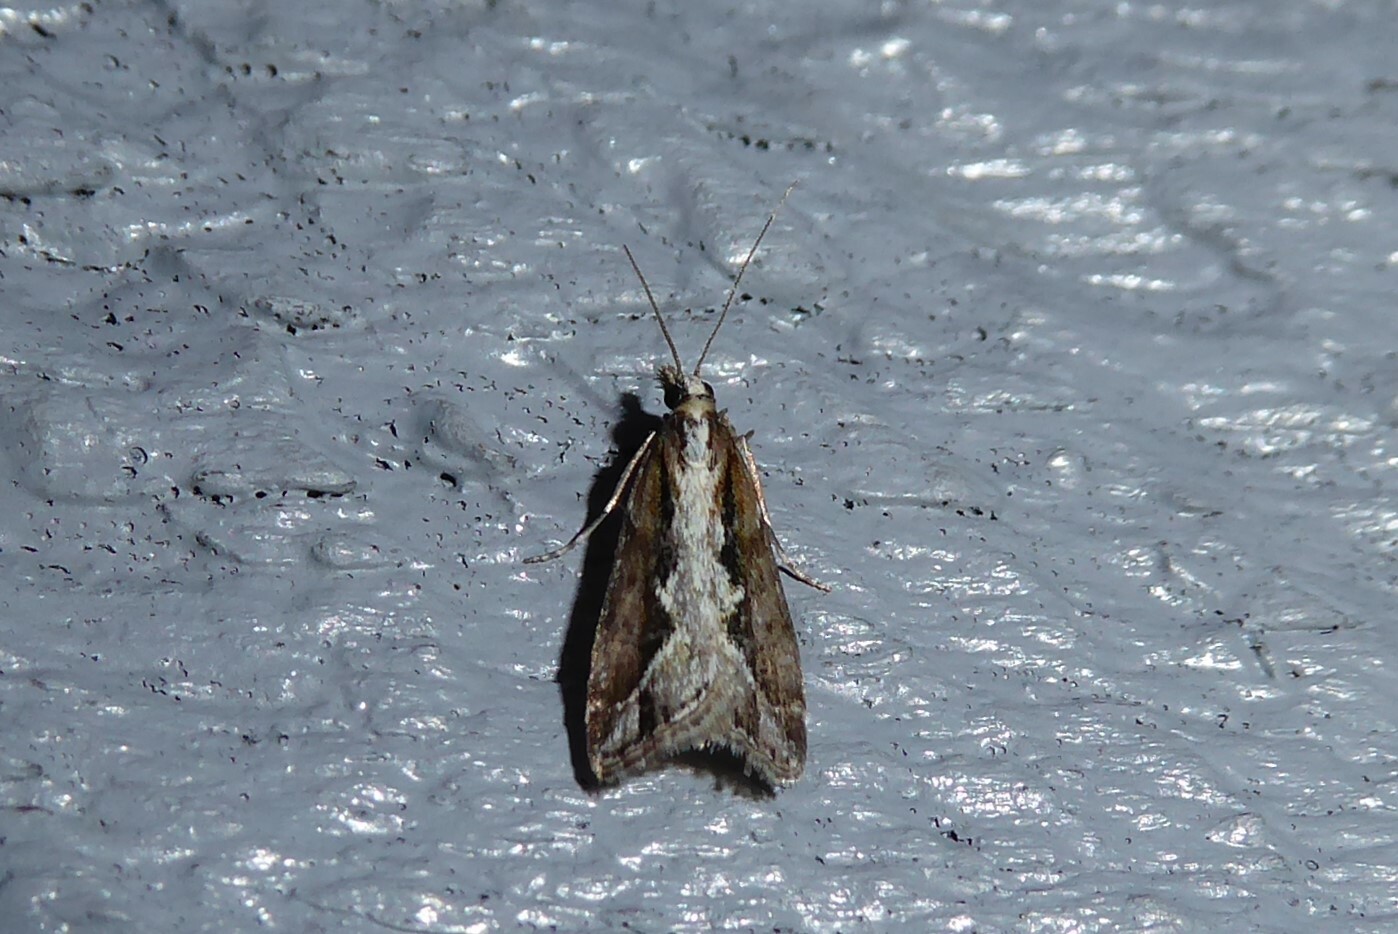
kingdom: Animalia
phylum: Arthropoda
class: Insecta
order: Lepidoptera
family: Crambidae
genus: Eudonia
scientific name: Eudonia steropaea
